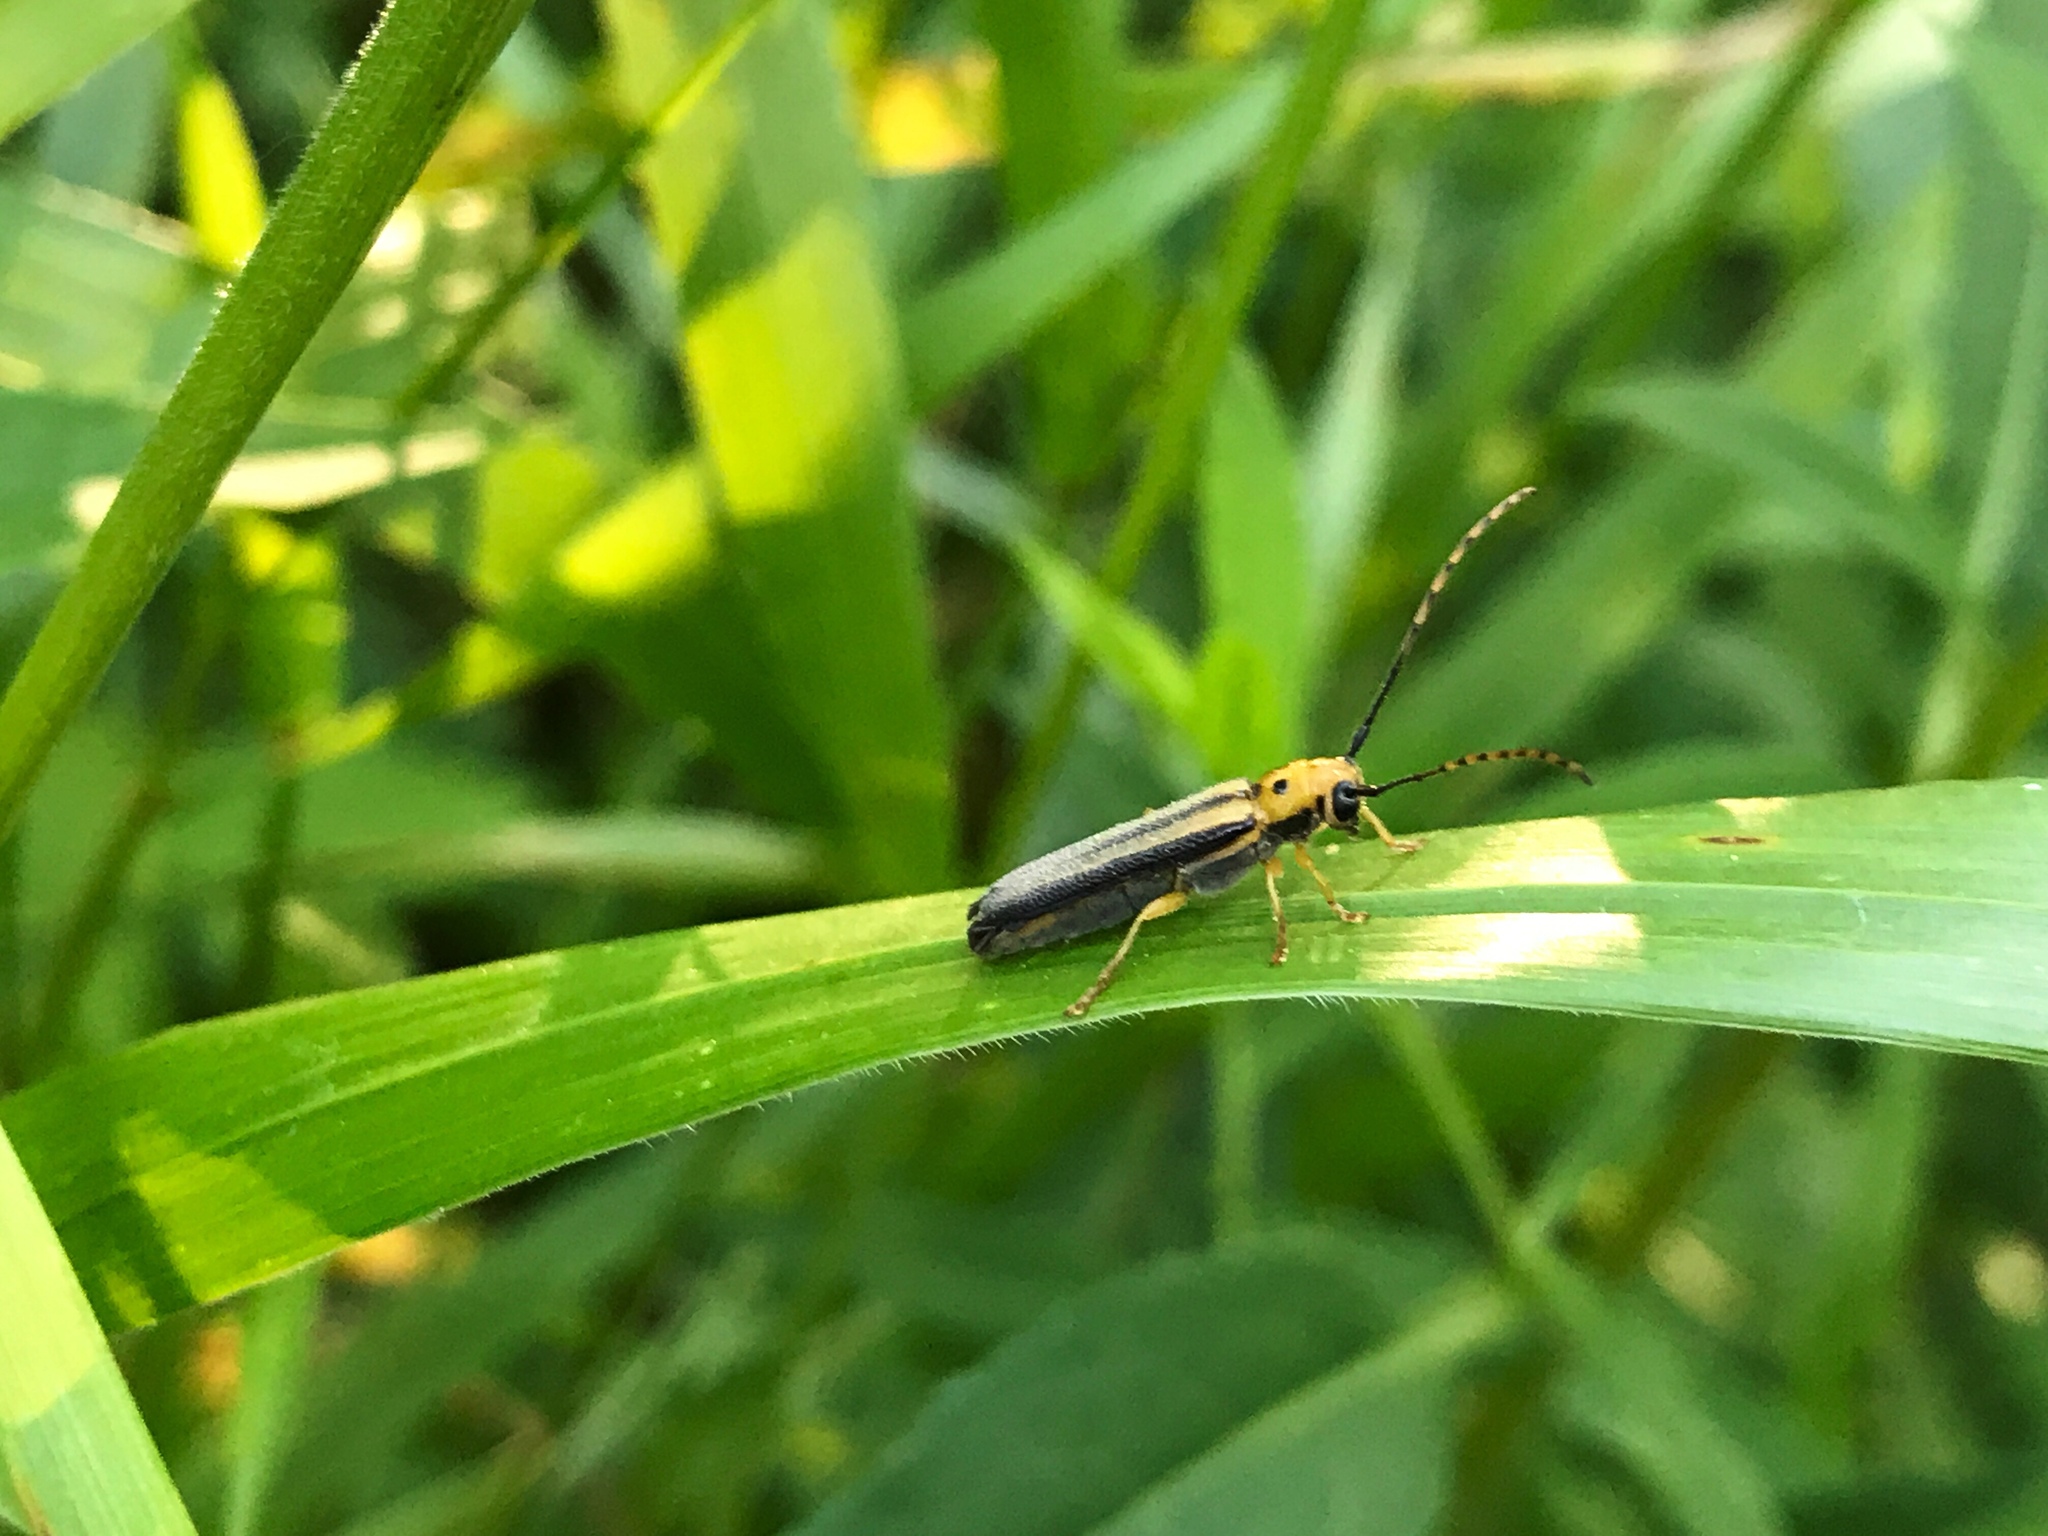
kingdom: Animalia
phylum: Arthropoda
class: Insecta
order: Coleoptera
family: Cerambycidae
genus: Oberea
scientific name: Oberea tripunctata
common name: Dogwood twig borer
